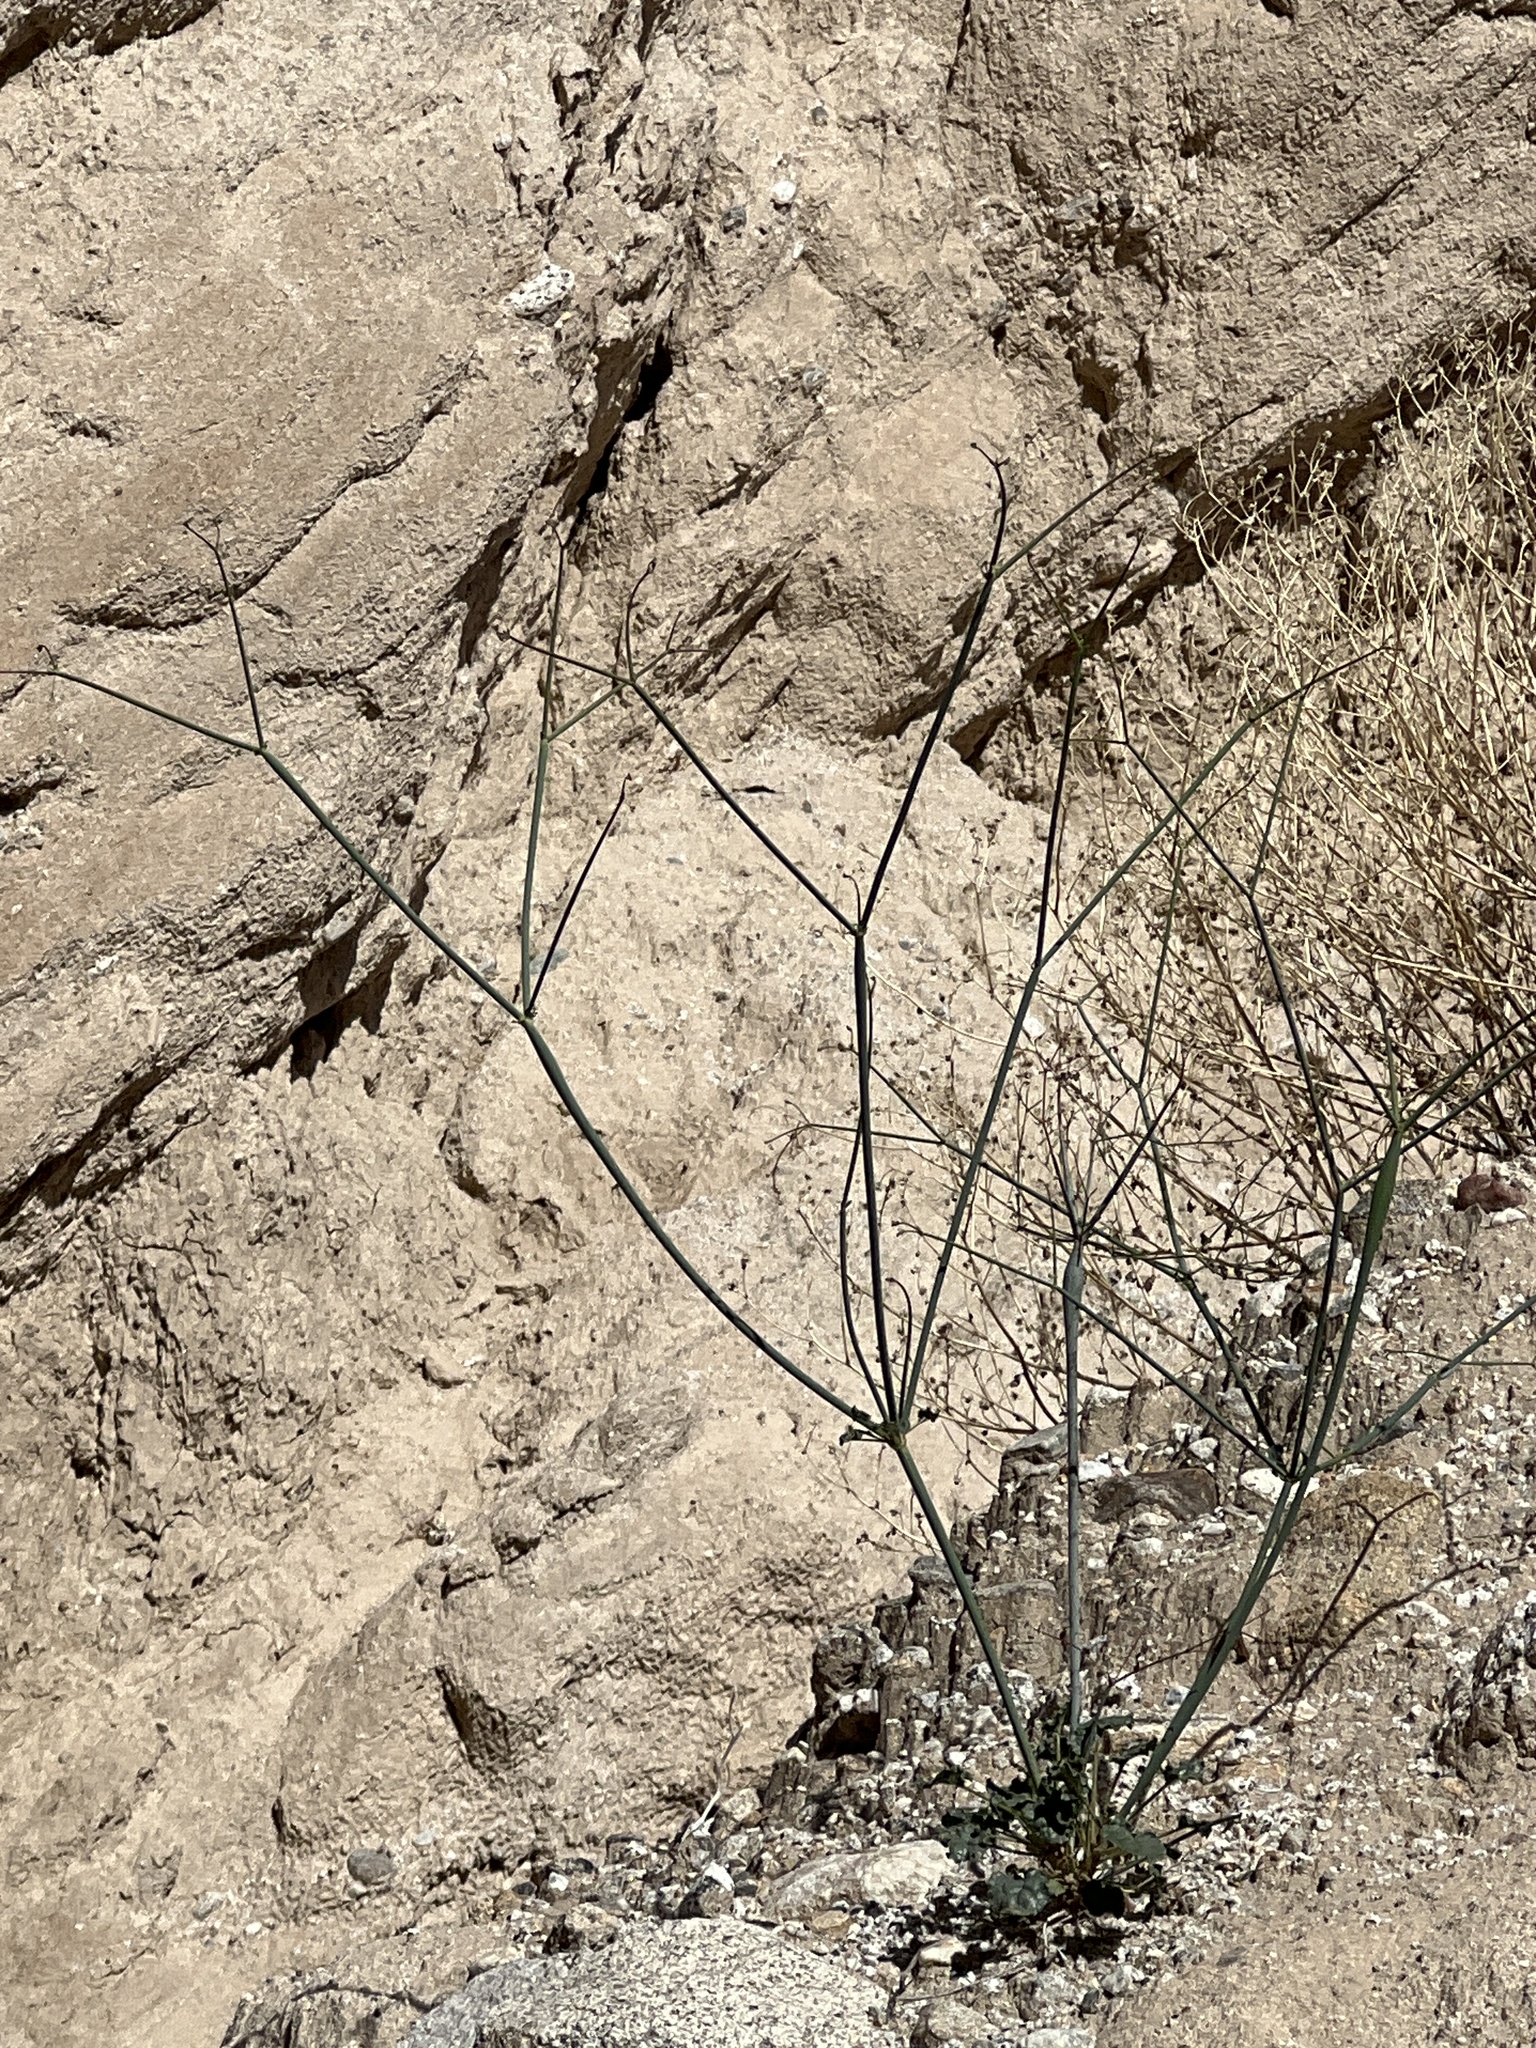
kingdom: Plantae
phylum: Tracheophyta
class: Magnoliopsida
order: Caryophyllales
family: Polygonaceae
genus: Eriogonum
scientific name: Eriogonum inflatum
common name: Desert trumpet
